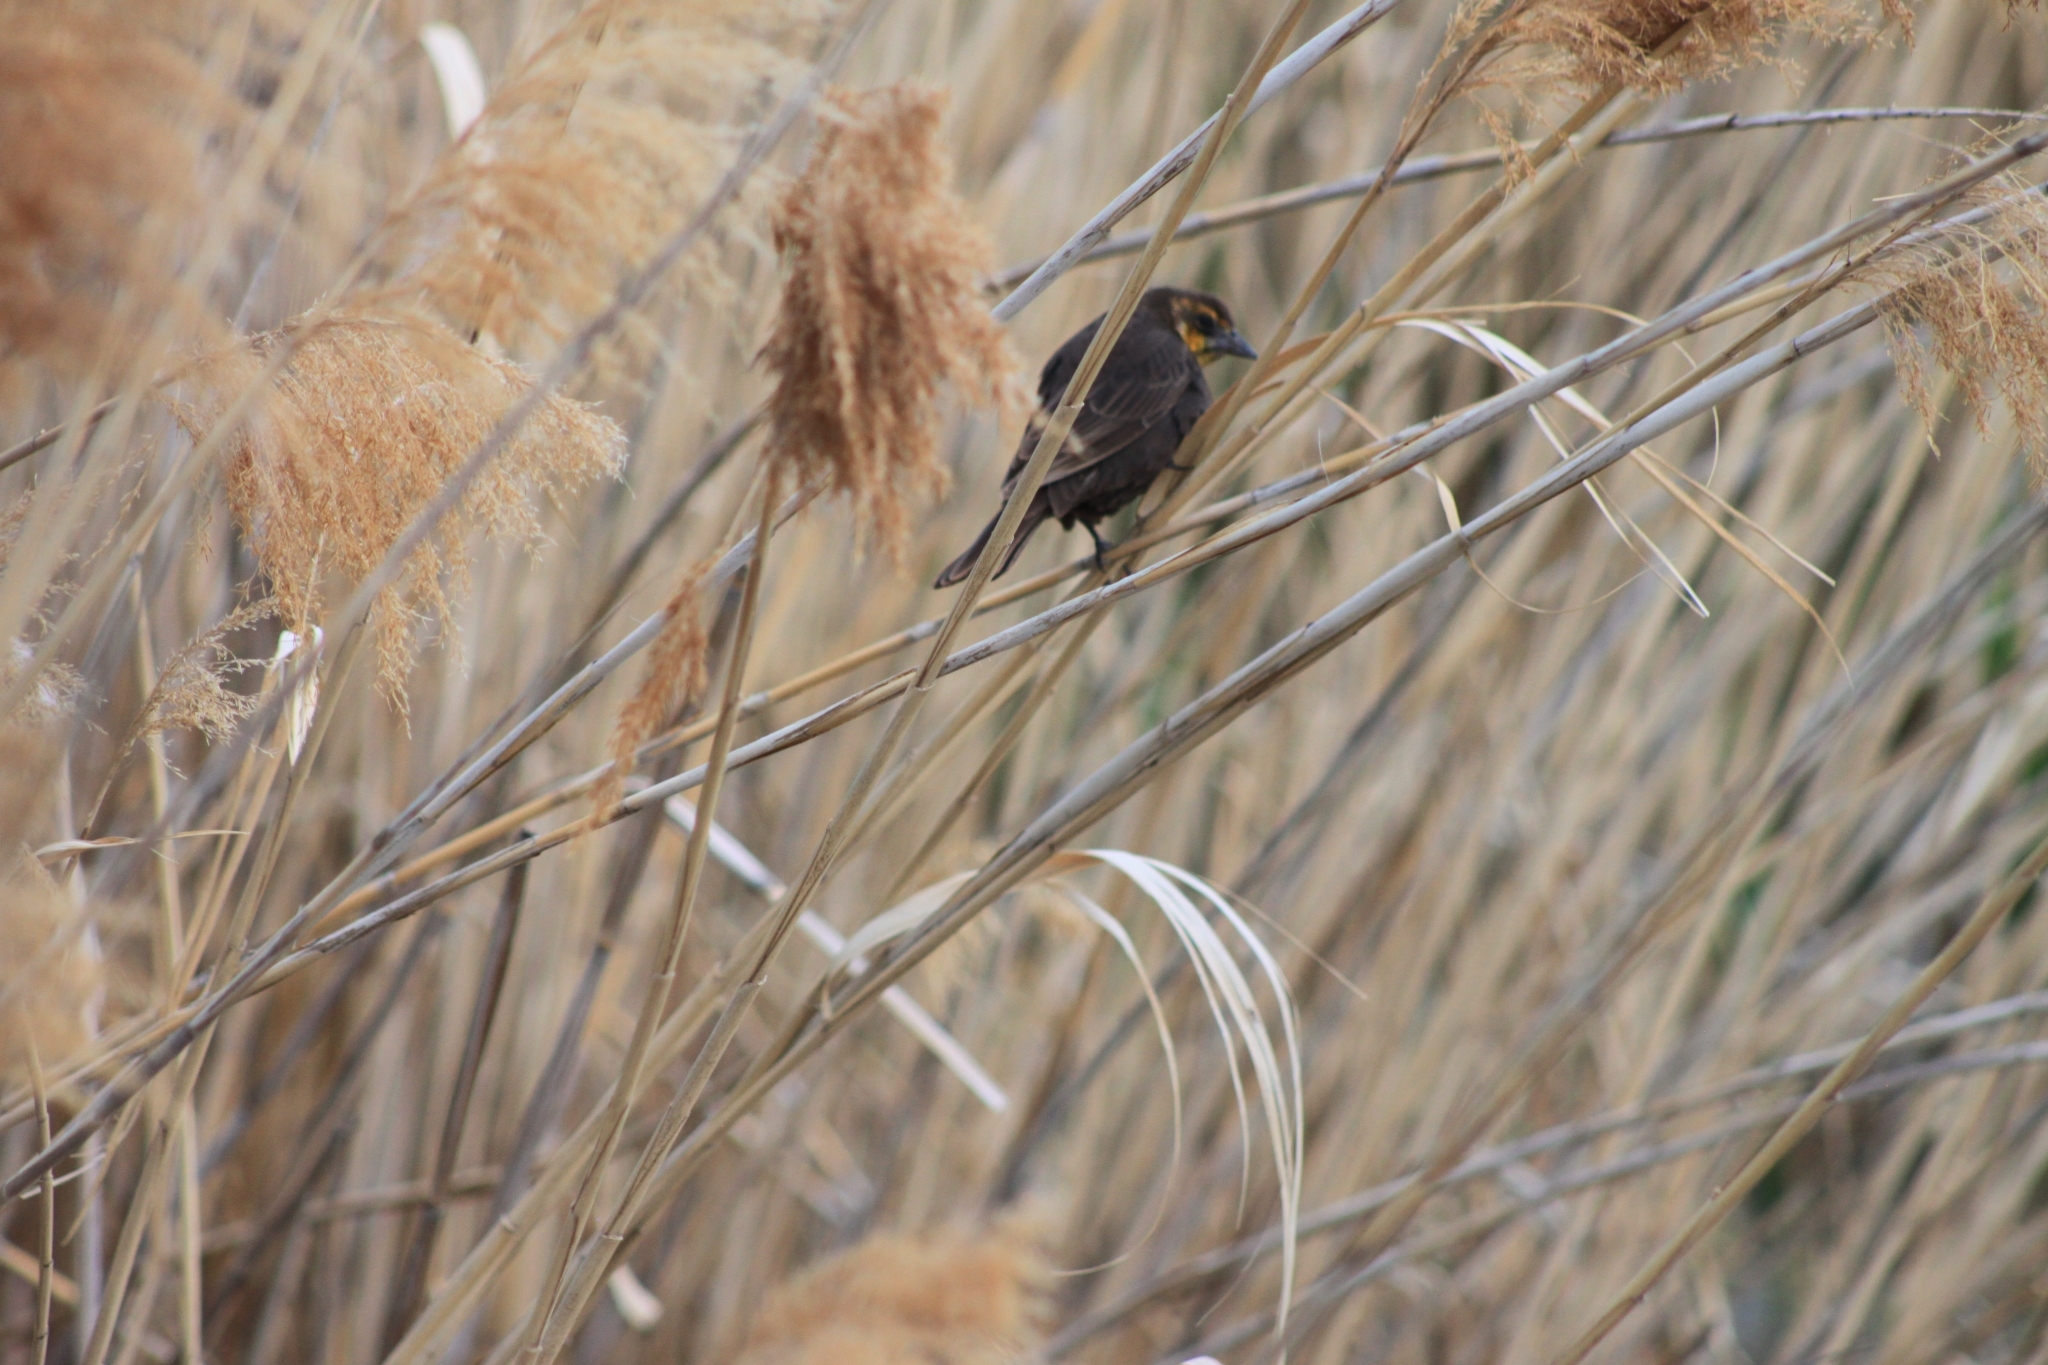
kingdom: Animalia
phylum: Chordata
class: Aves
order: Passeriformes
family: Icteridae
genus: Xanthocephalus
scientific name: Xanthocephalus xanthocephalus
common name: Yellow-headed blackbird
